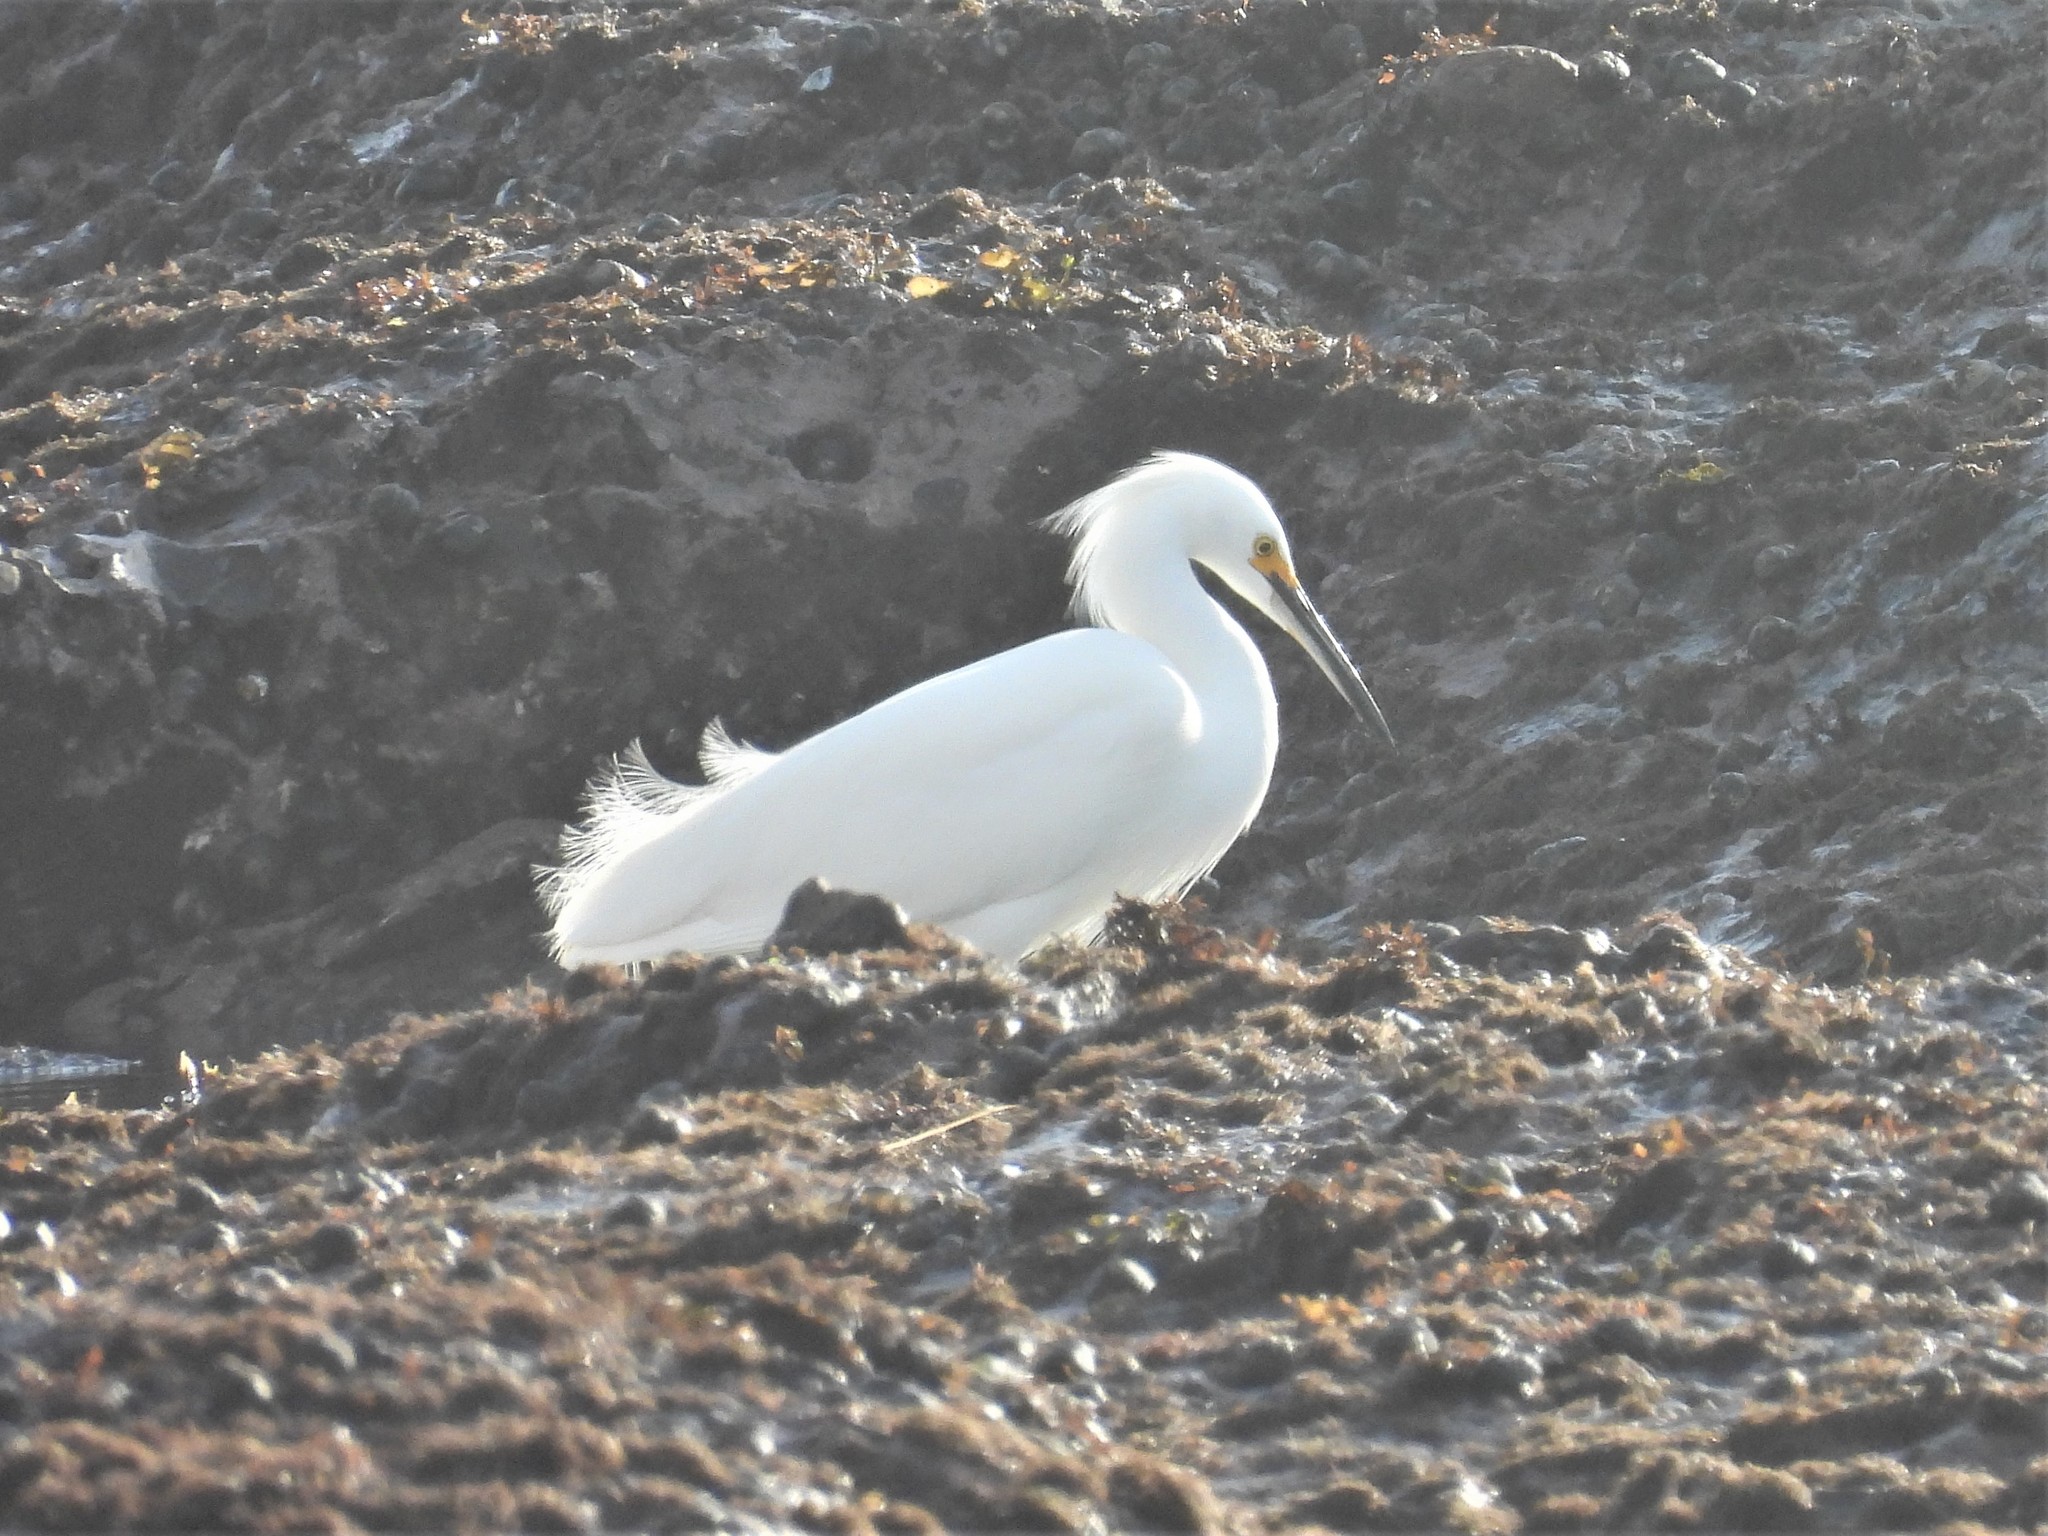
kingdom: Animalia
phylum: Chordata
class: Aves
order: Pelecaniformes
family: Ardeidae
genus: Egretta
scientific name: Egretta thula
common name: Snowy egret
